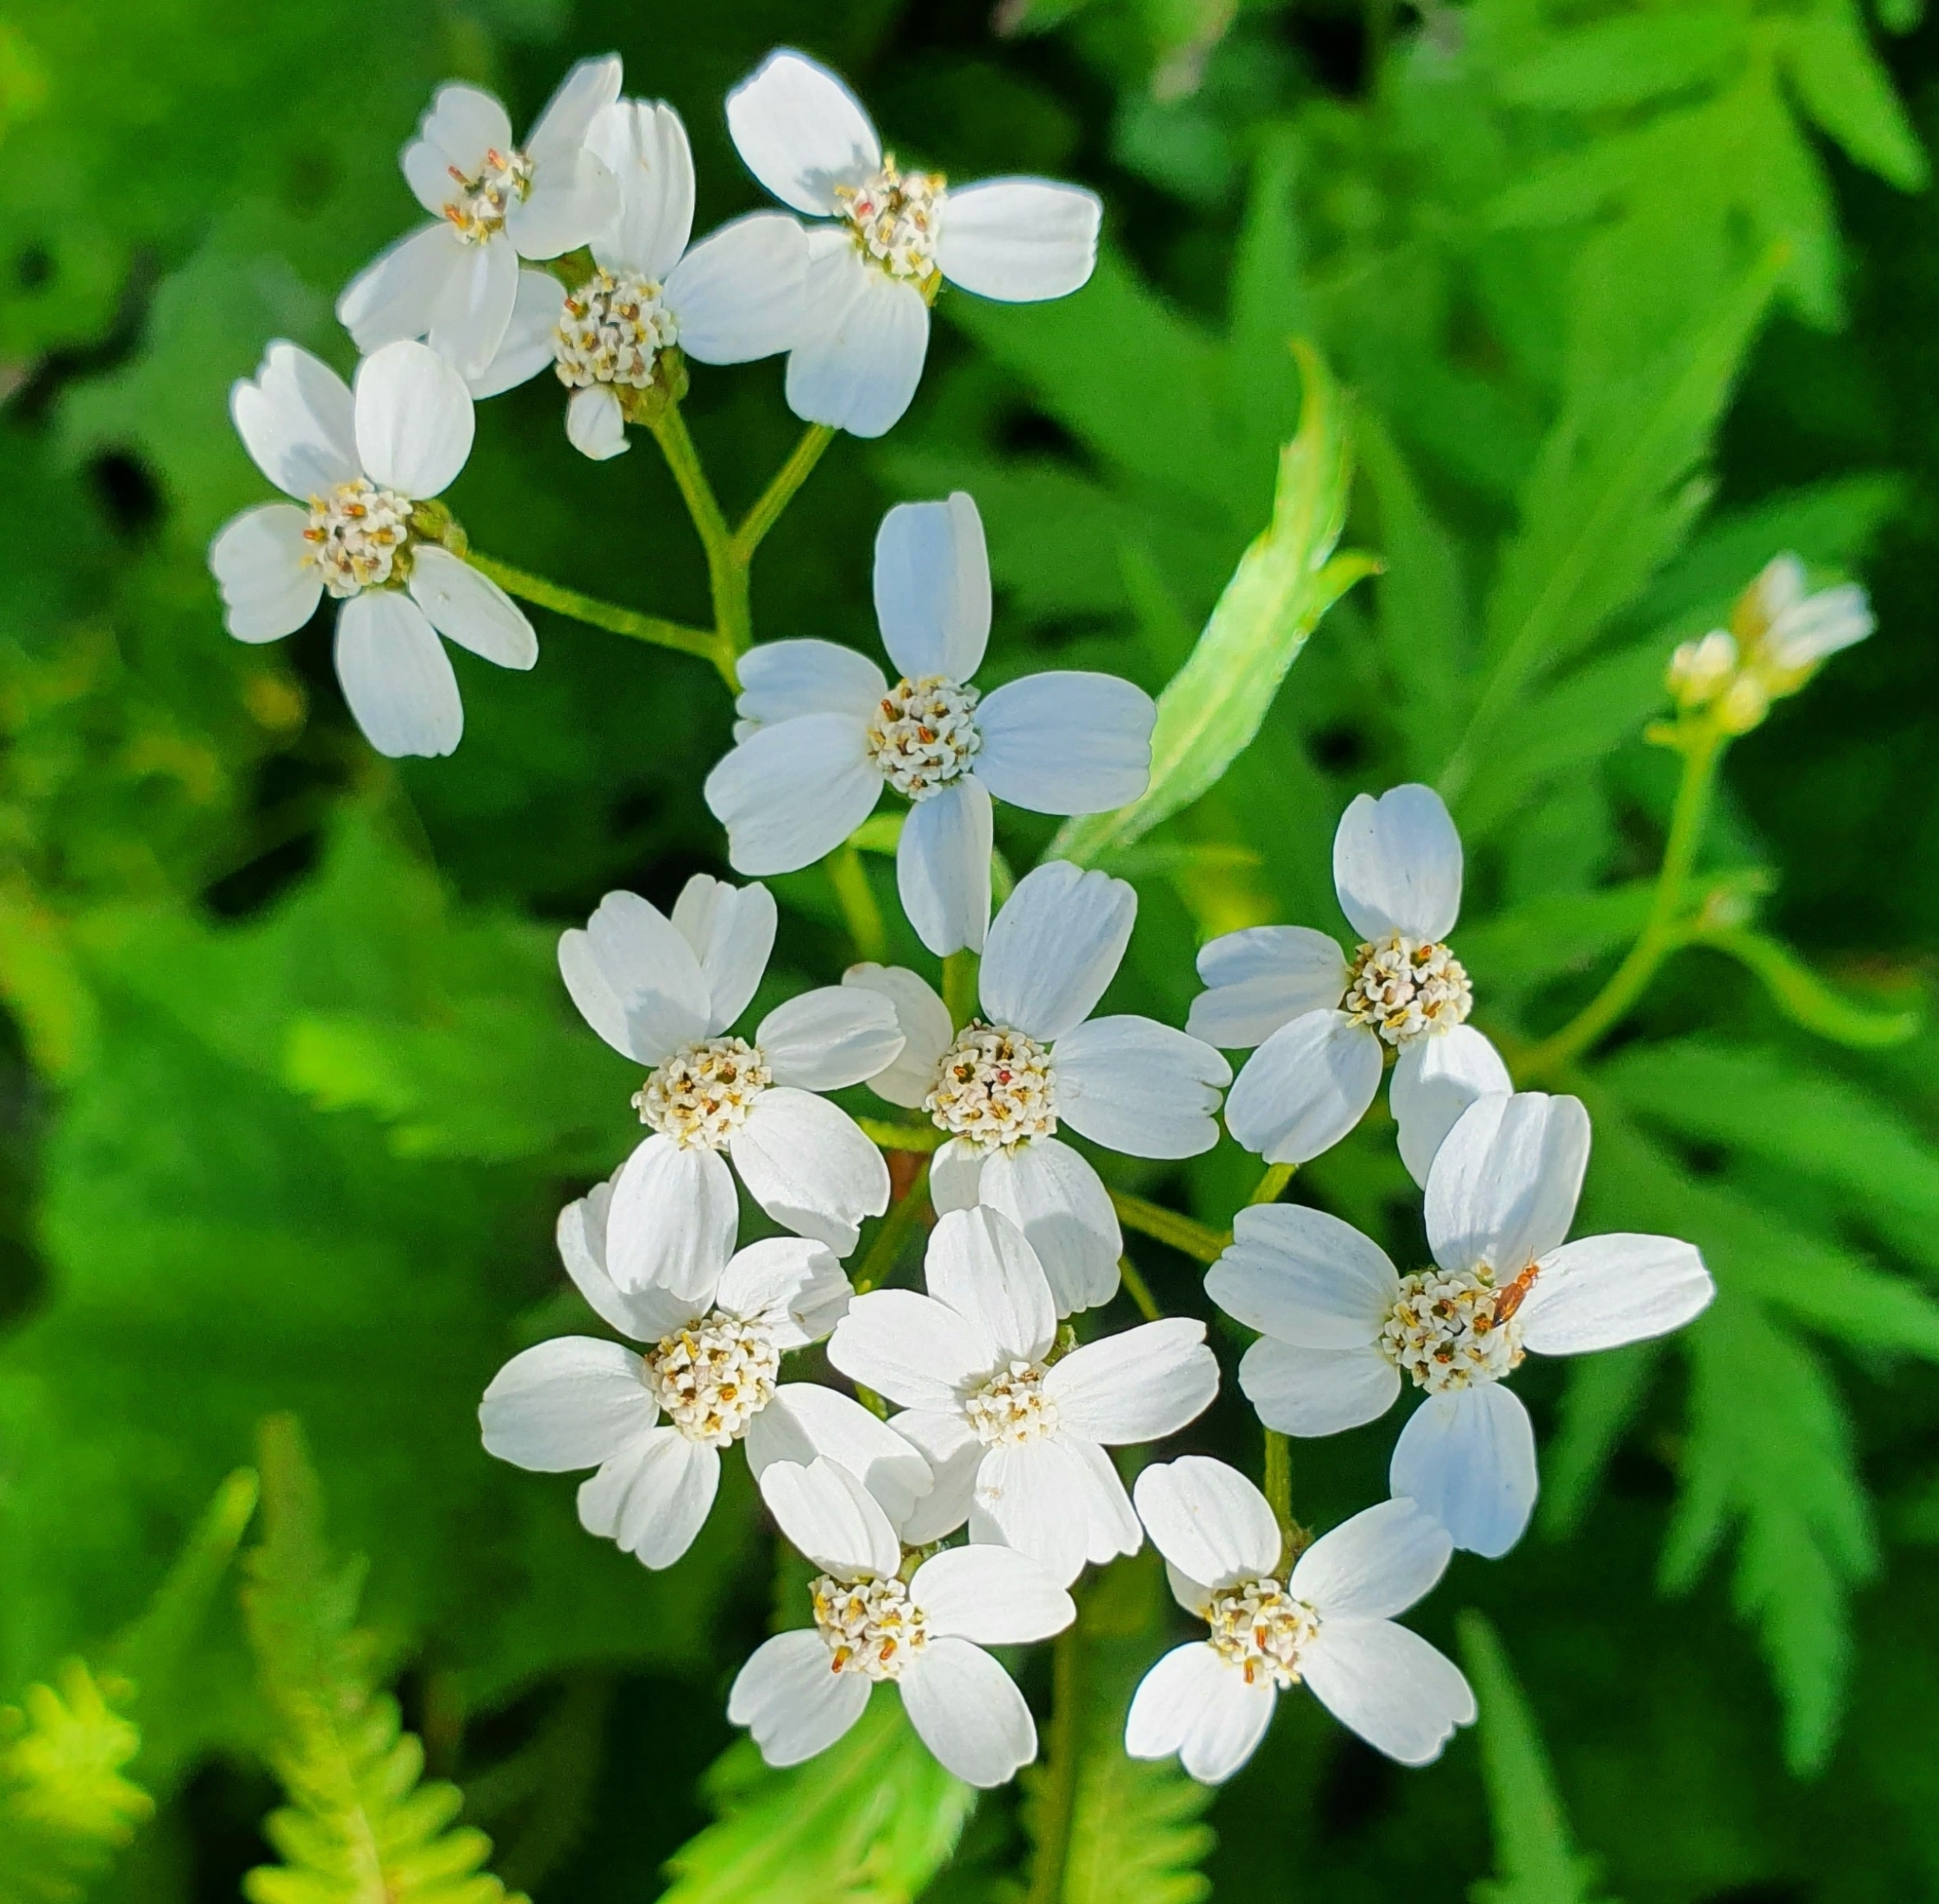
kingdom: Plantae
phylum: Tracheophyta
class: Magnoliopsida
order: Asterales
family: Asteraceae
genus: Achillea
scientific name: Achillea macrophylla
